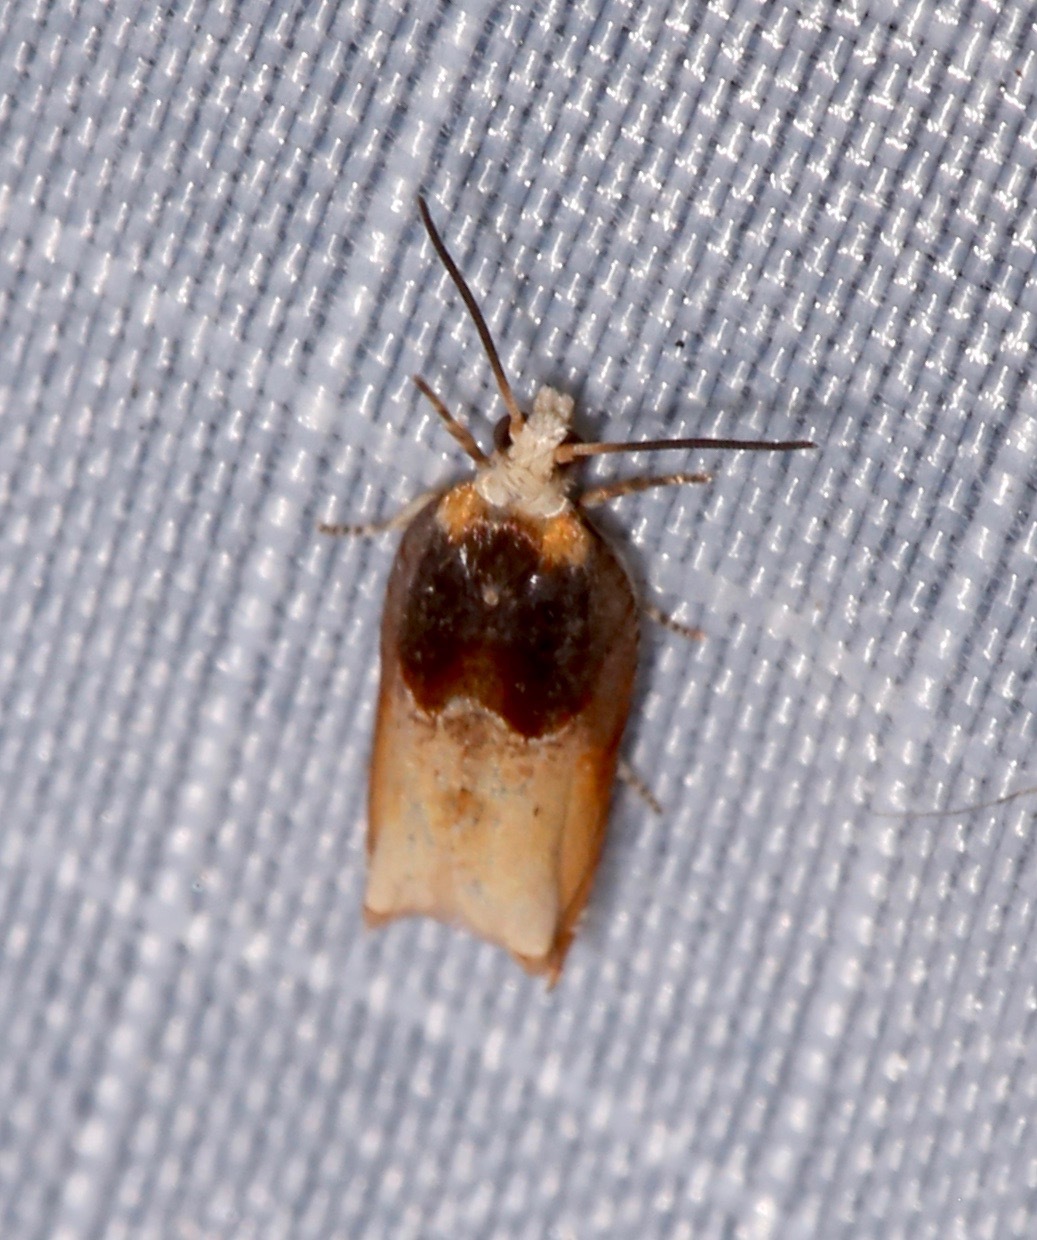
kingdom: Animalia
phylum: Arthropoda
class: Insecta
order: Lepidoptera
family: Tortricidae
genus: Ancylis
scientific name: Ancylis divisana
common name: Two-toned ancylis moth
